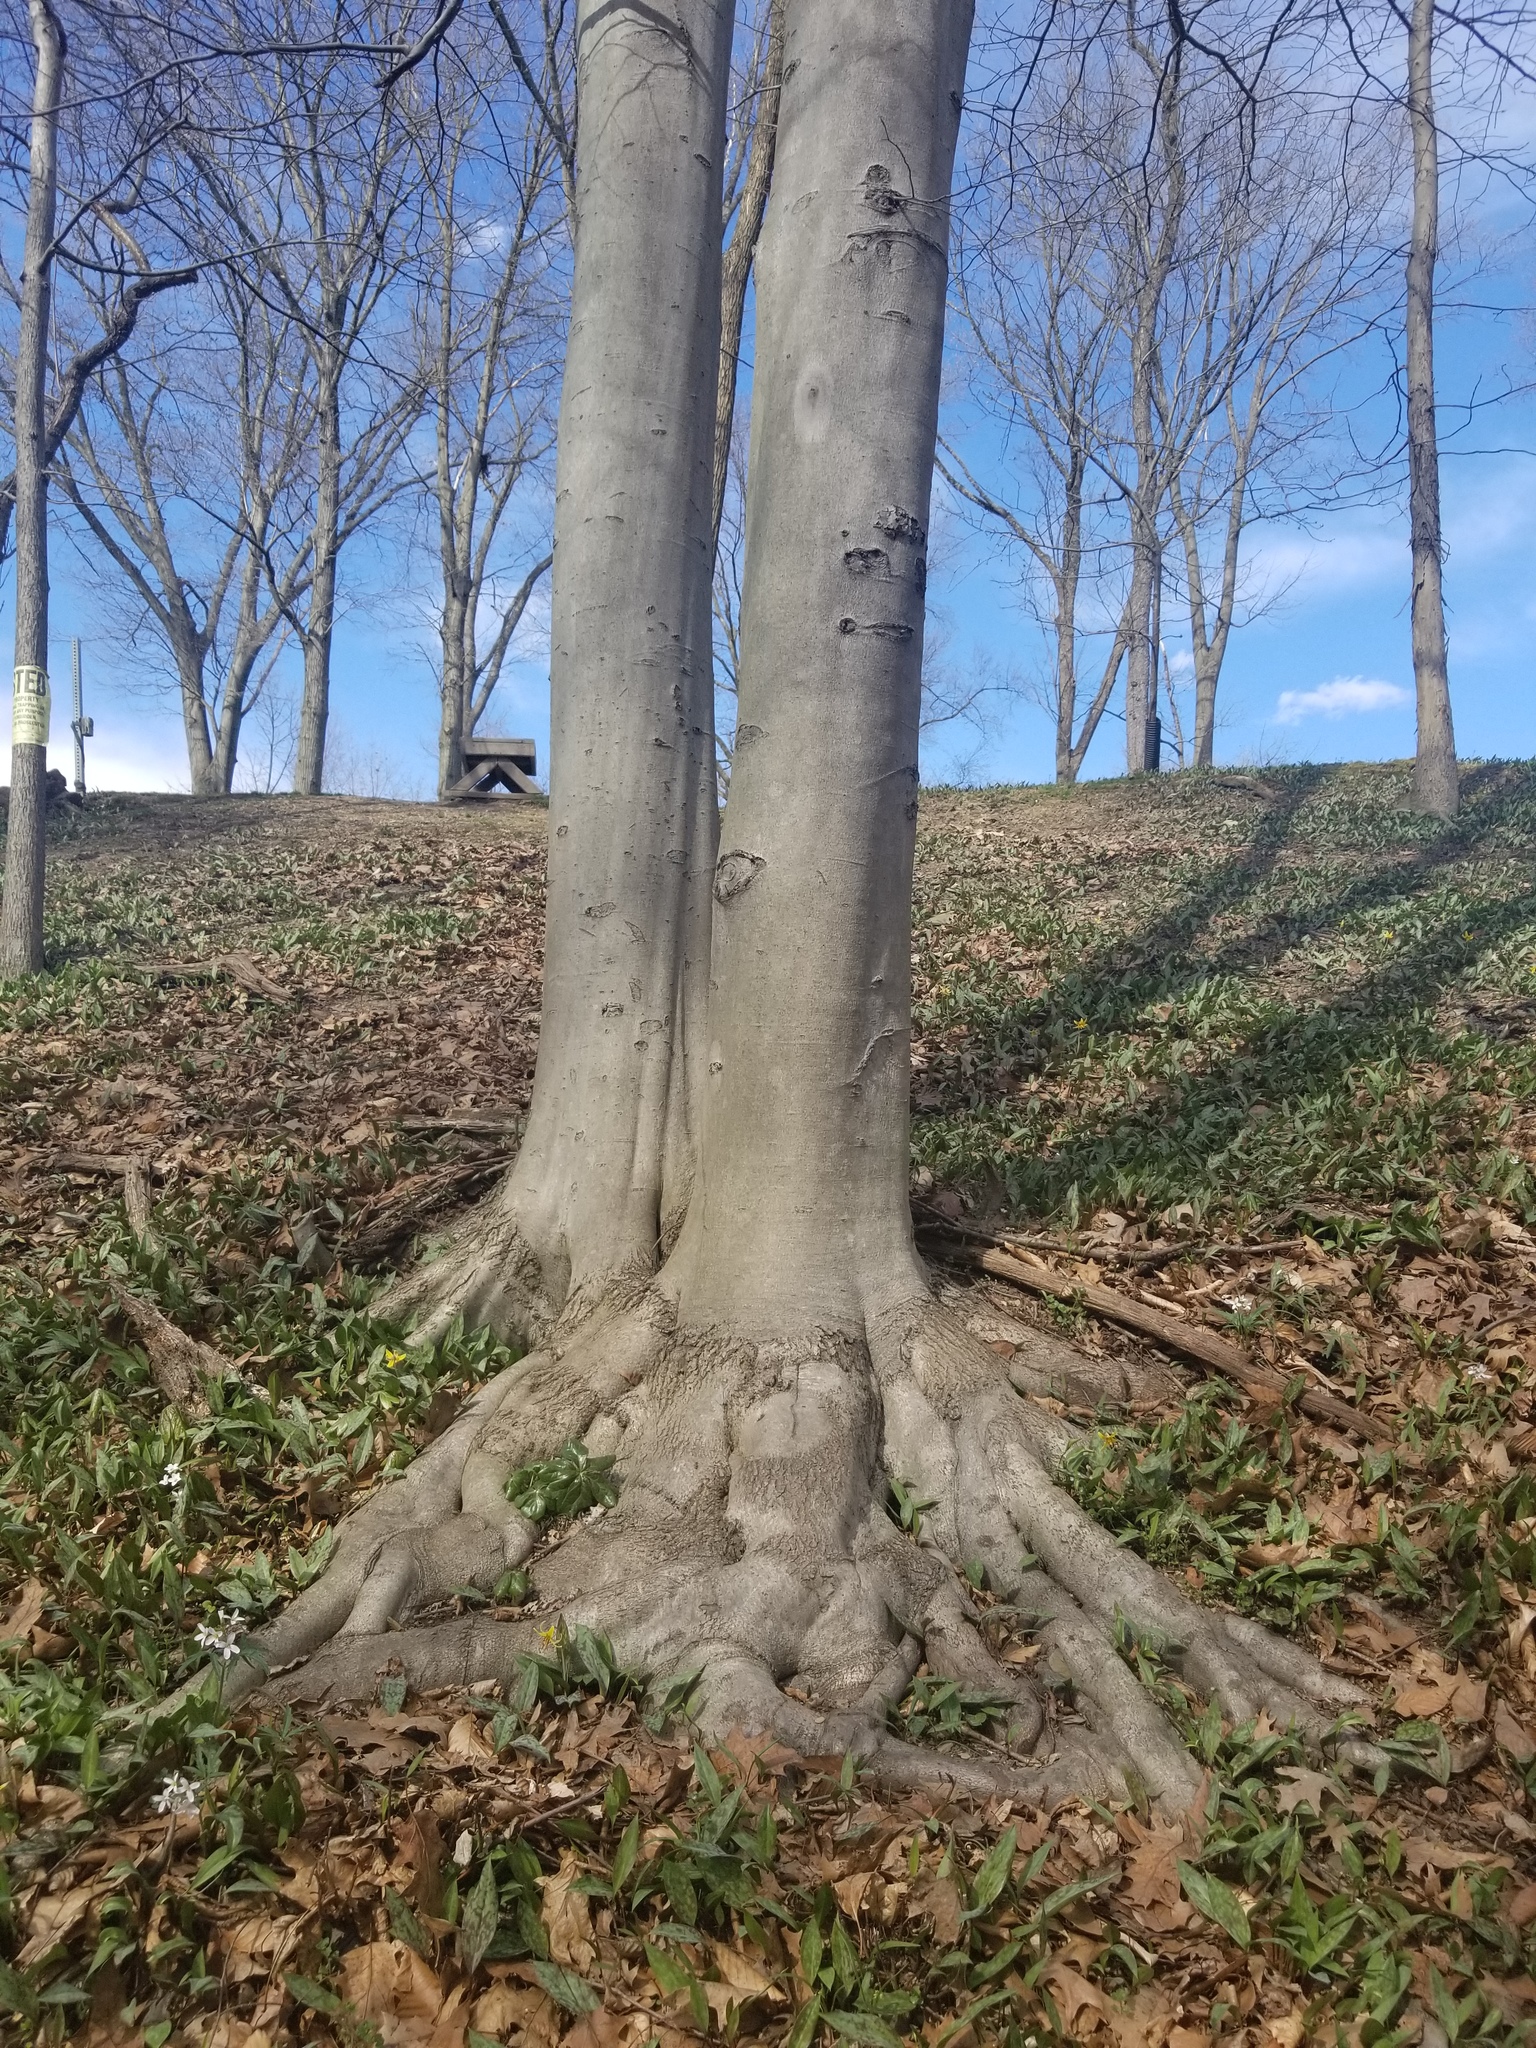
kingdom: Plantae
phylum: Tracheophyta
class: Magnoliopsida
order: Fagales
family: Fagaceae
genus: Fagus
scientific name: Fagus grandifolia
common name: American beech
